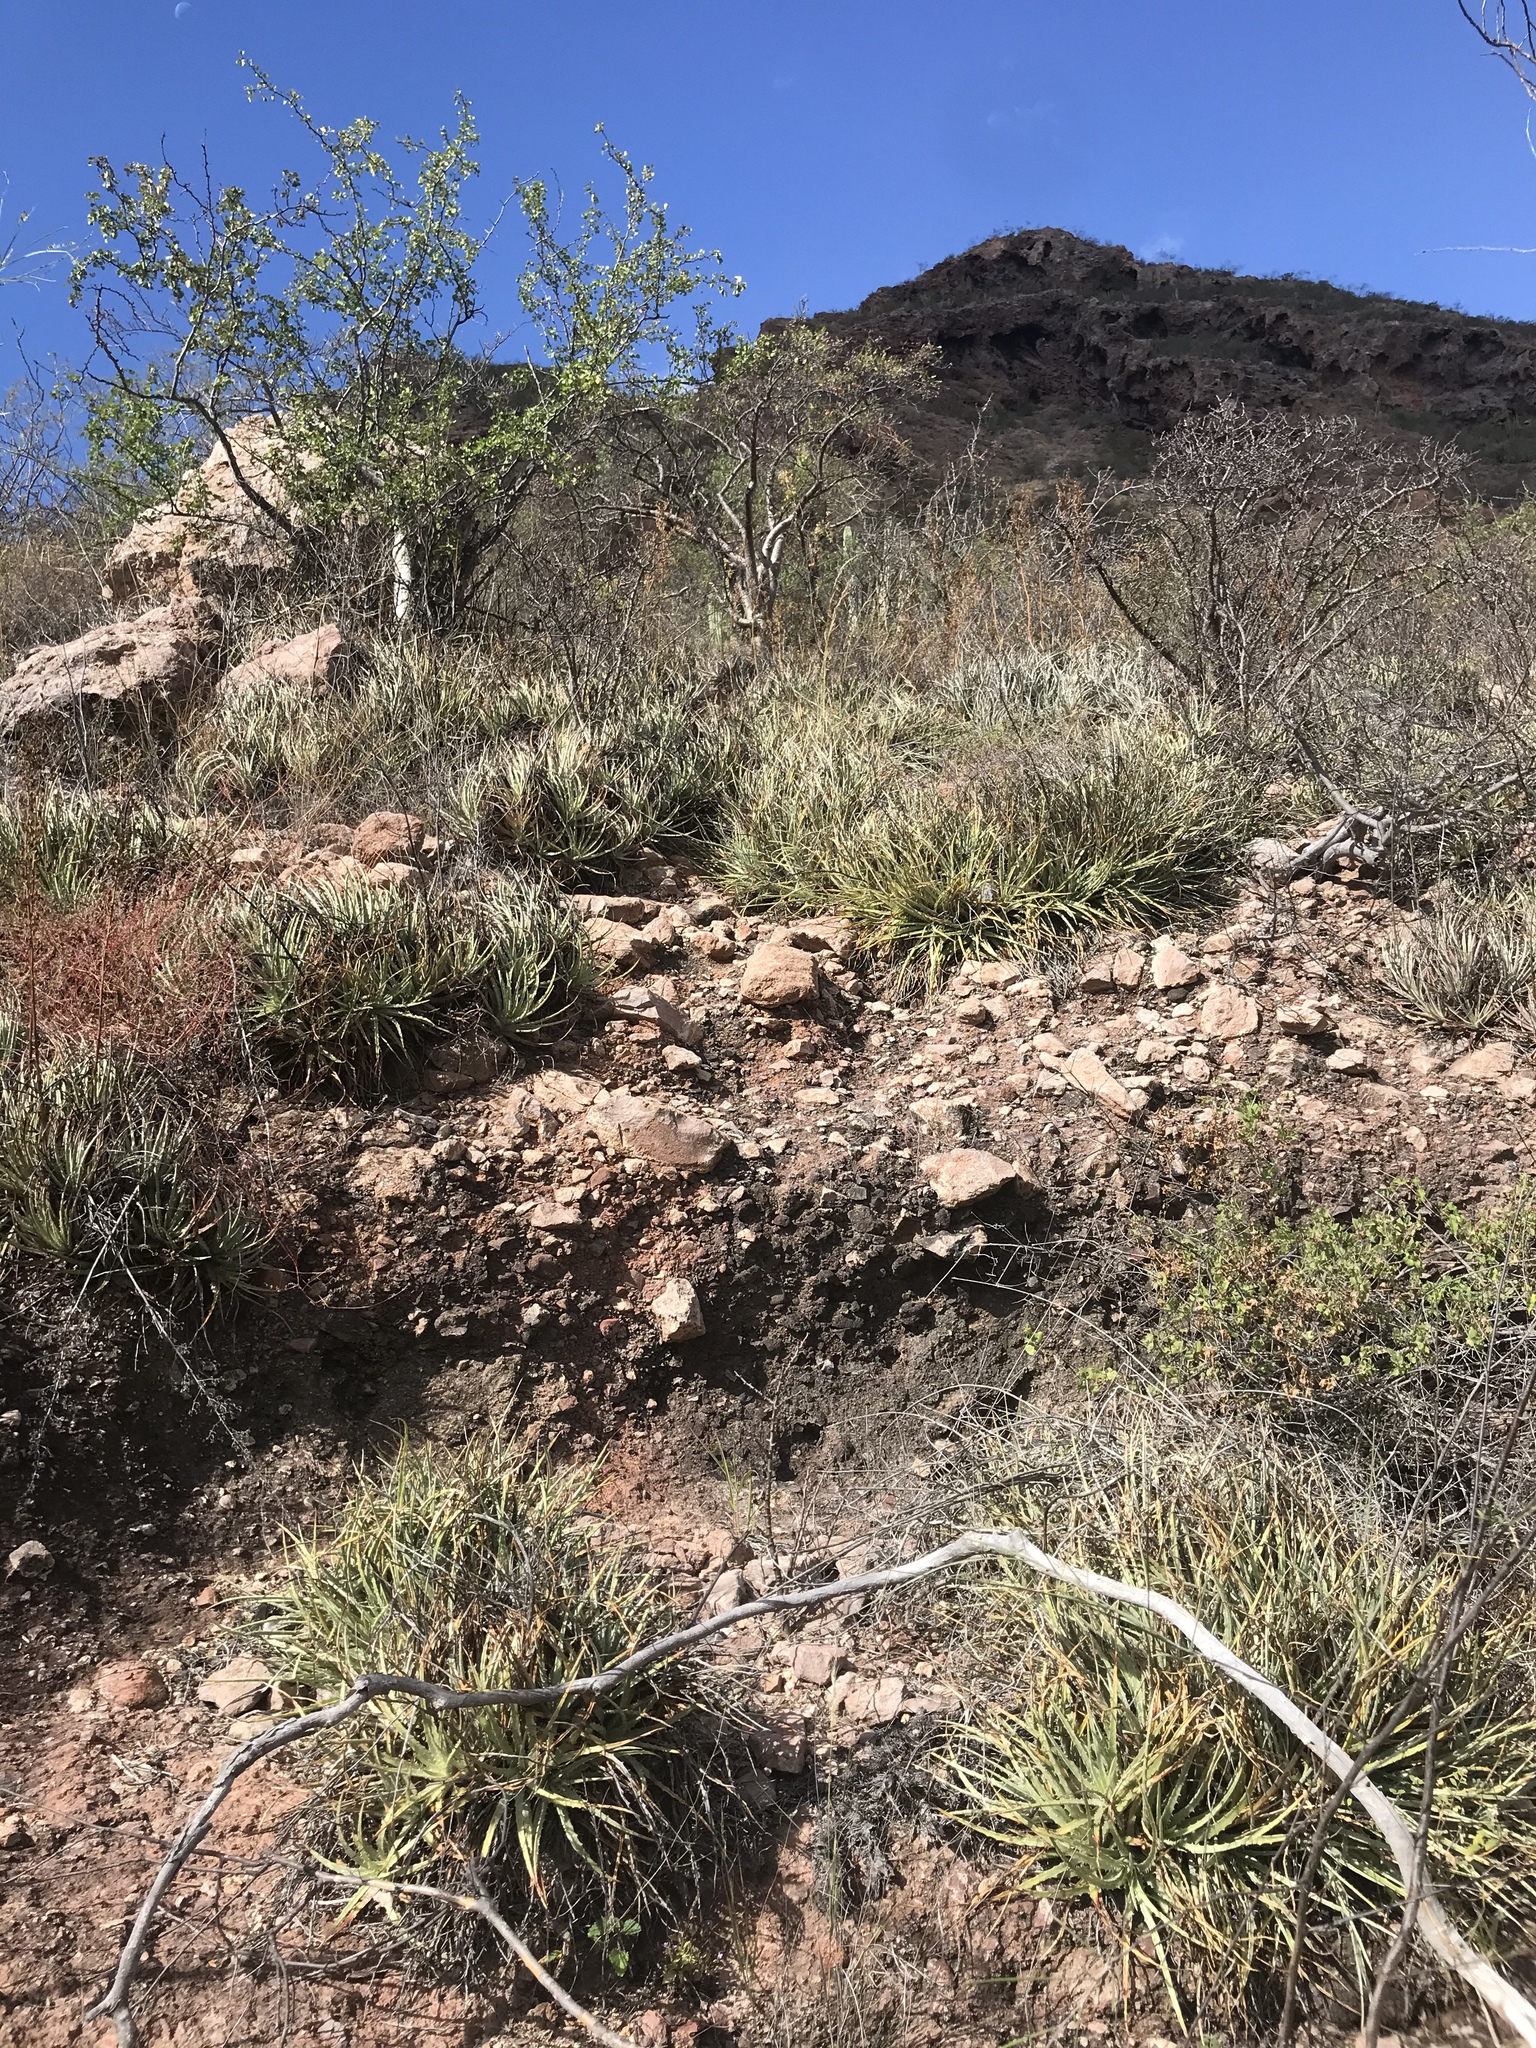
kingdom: Plantae
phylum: Tracheophyta
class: Liliopsida
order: Poales
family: Bromeliaceae
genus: Hechtia
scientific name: Hechtia montana
